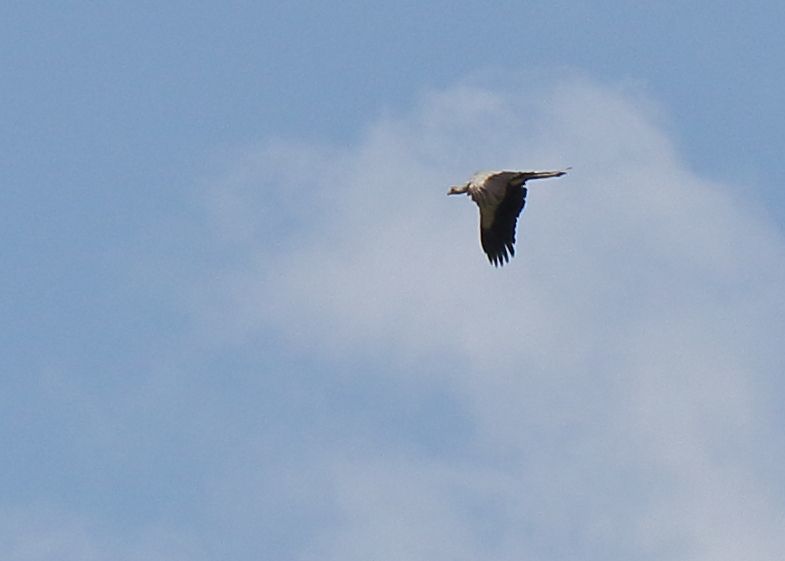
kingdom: Animalia
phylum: Chordata
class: Aves
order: Accipitriformes
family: Sagittariidae
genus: Sagittarius
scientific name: Sagittarius serpentarius
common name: Secretarybird
